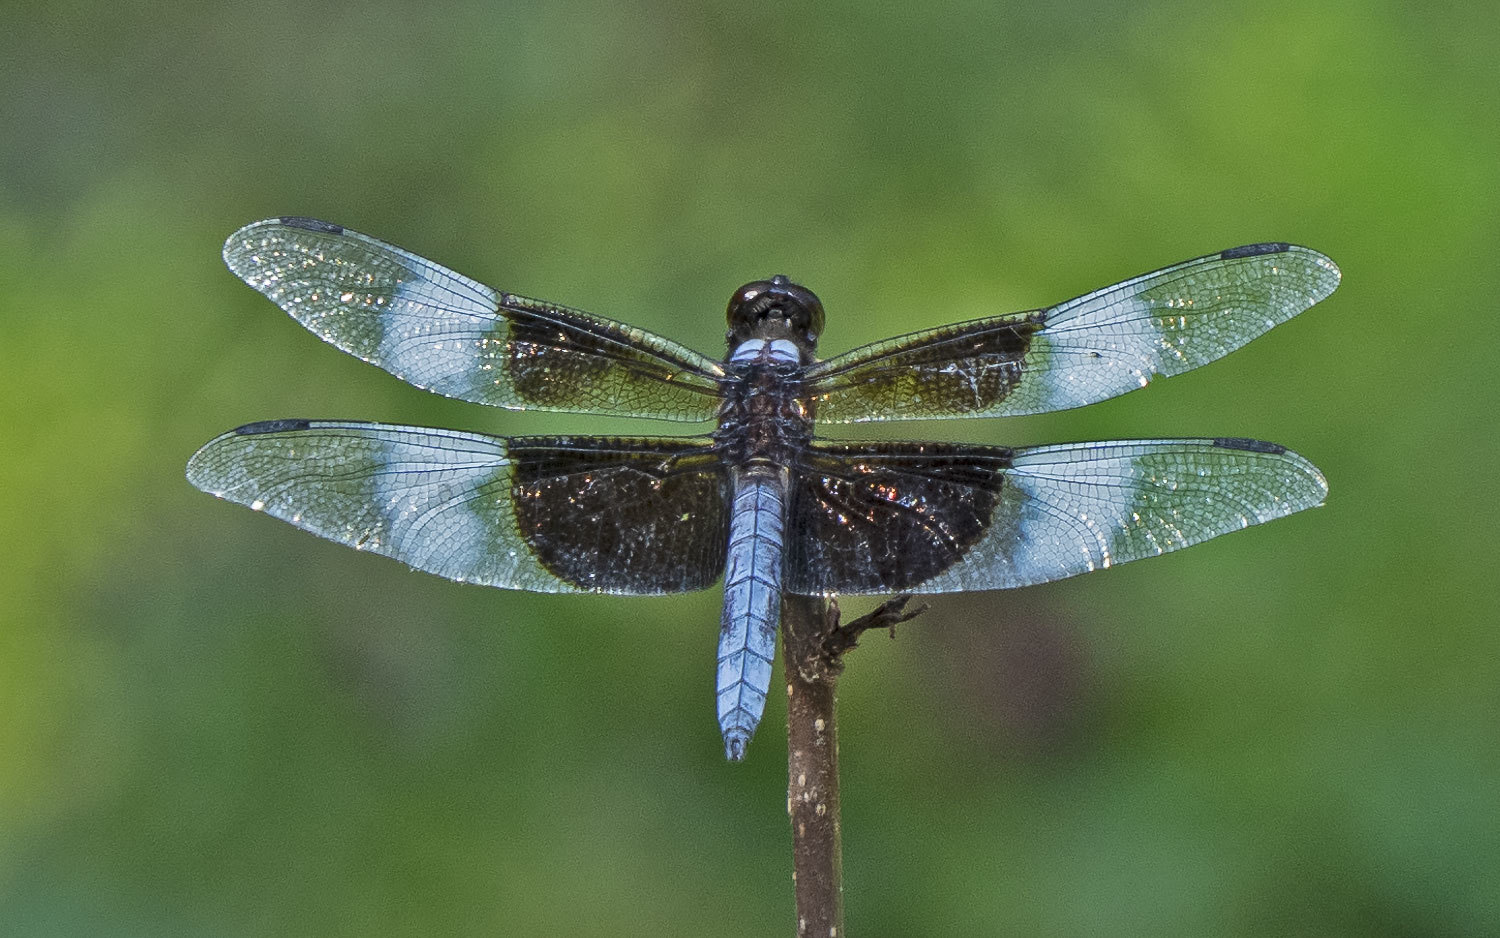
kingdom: Animalia
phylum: Arthropoda
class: Insecta
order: Odonata
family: Libellulidae
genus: Libellula
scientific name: Libellula luctuosa
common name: Widow skimmer
